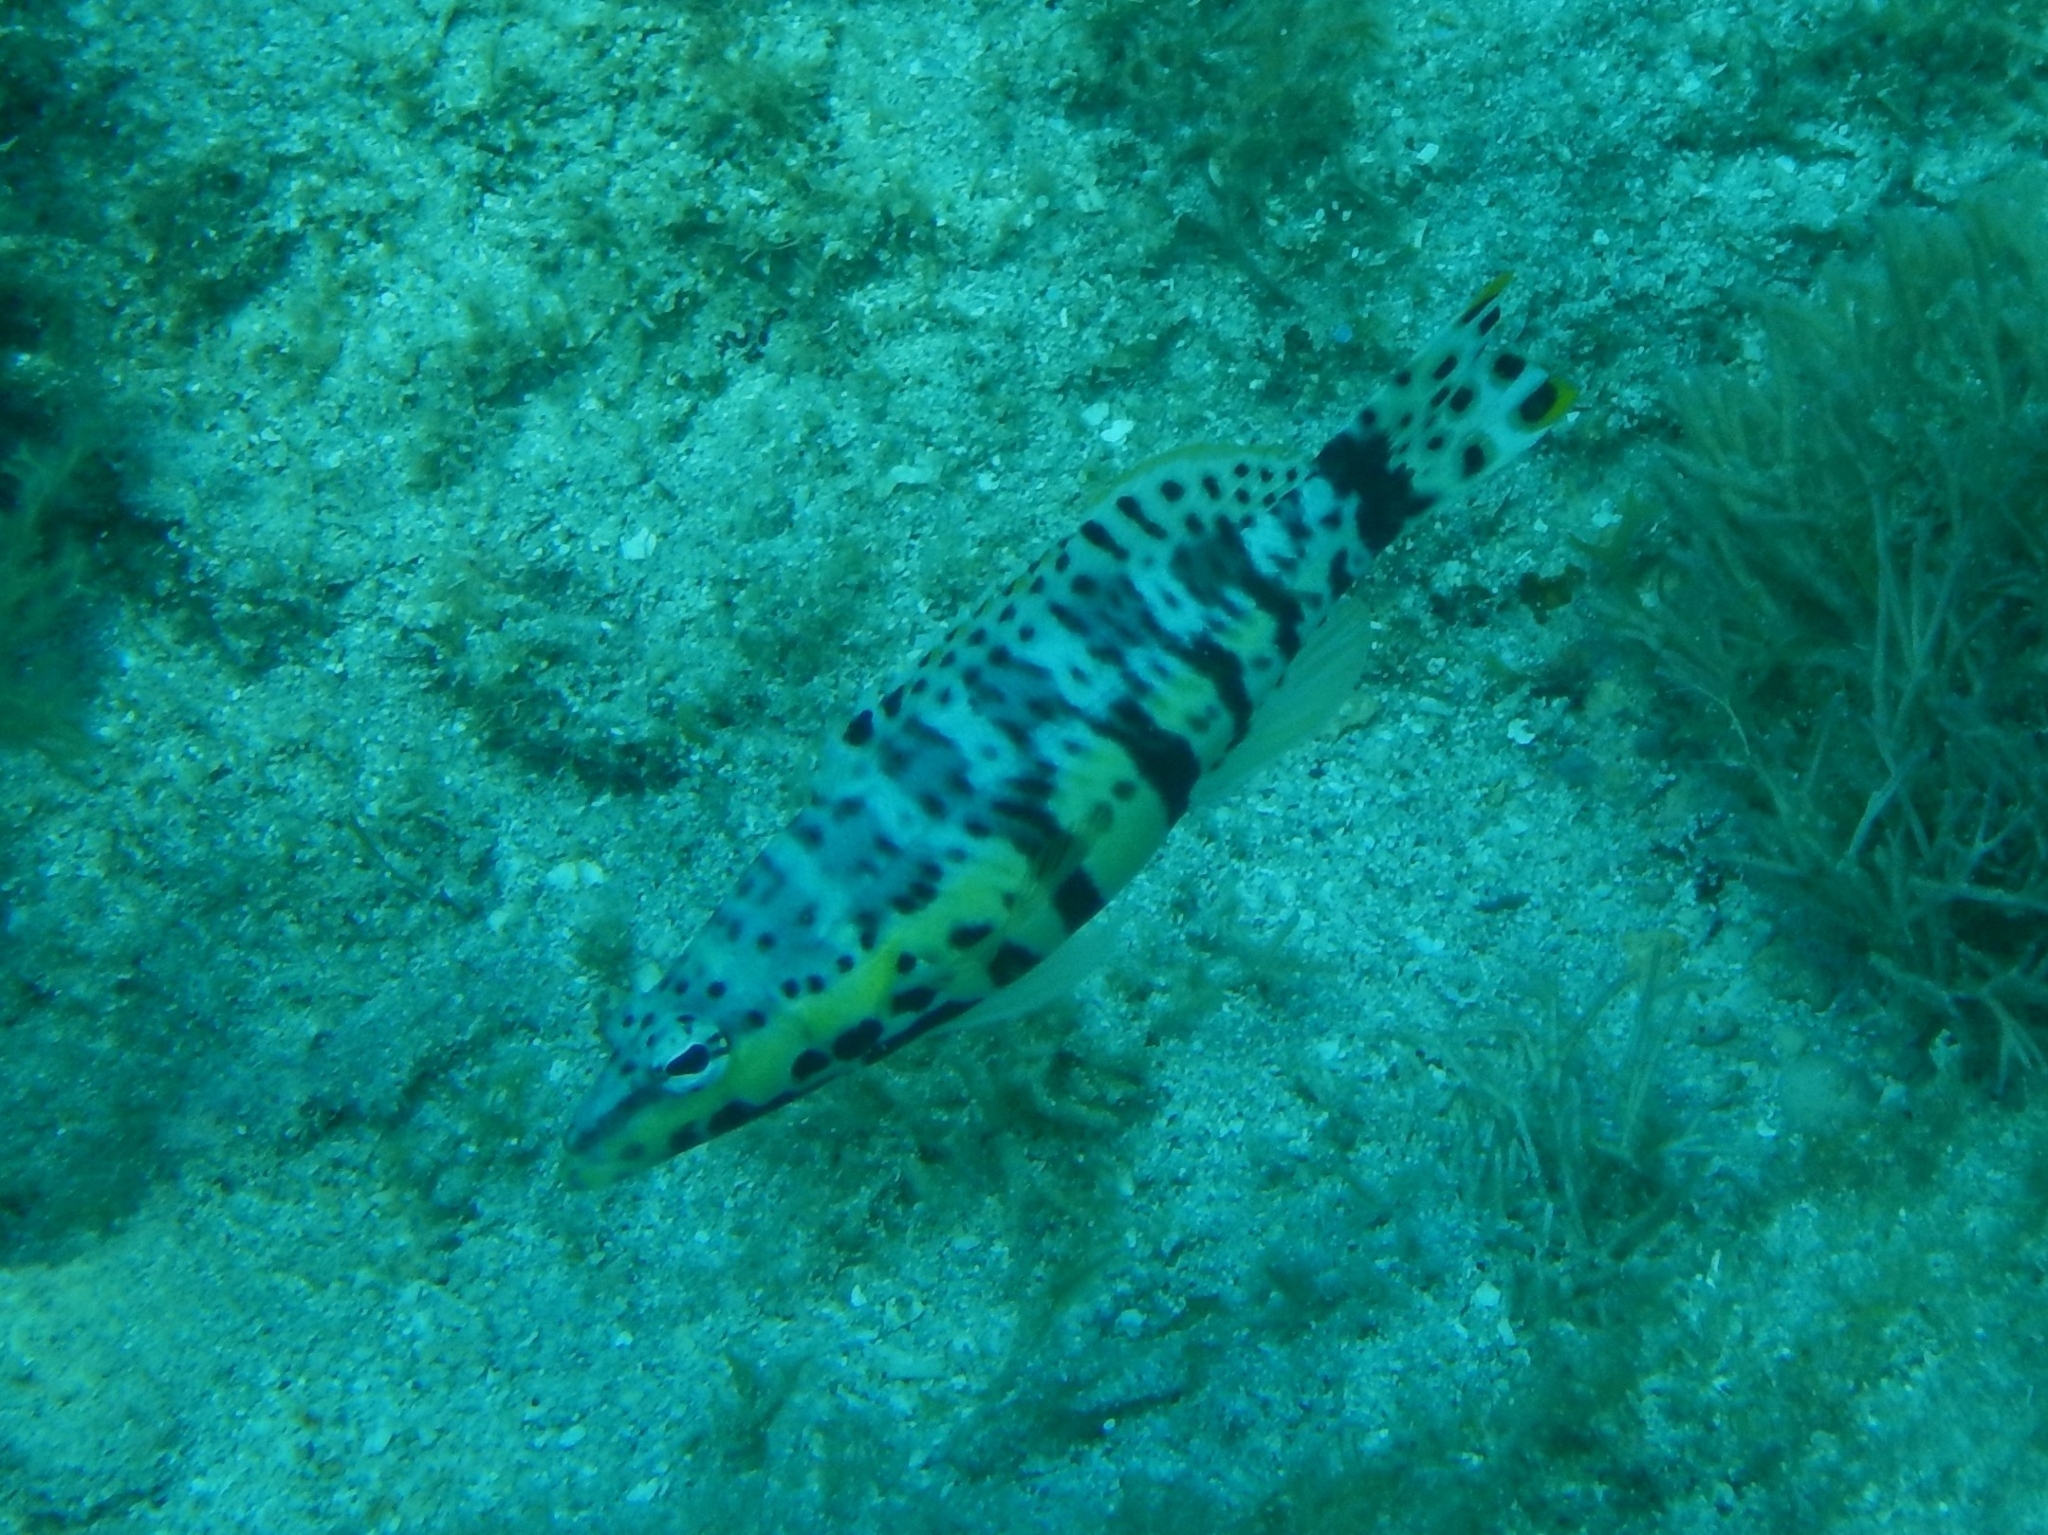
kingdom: Animalia
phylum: Chordata
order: Perciformes
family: Serranidae
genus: Serranus
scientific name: Serranus tigrinus
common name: Harlequin bass
